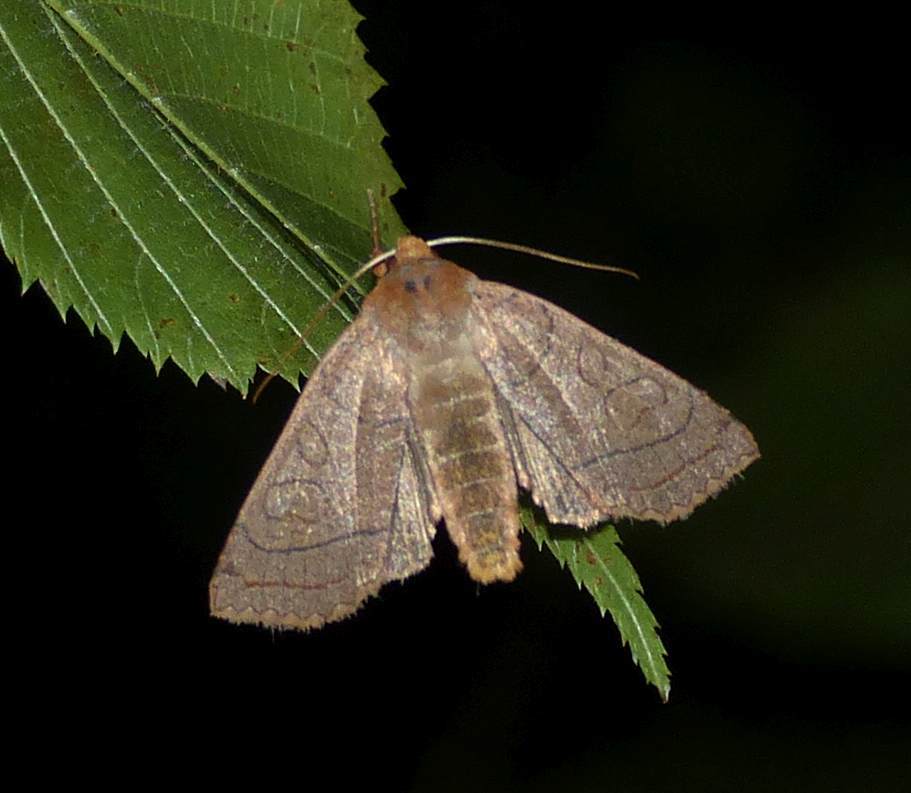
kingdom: Animalia
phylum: Arthropoda
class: Insecta
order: Lepidoptera
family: Noctuidae
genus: Metaxaglaea
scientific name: Metaxaglaea inulta
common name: Unsated sallow
